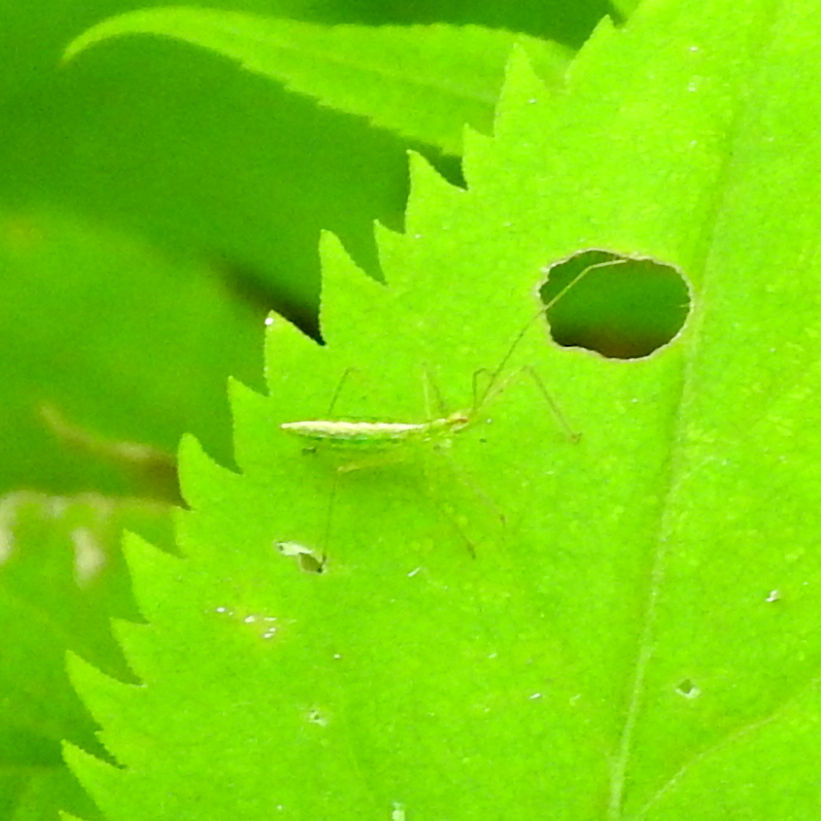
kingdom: Animalia
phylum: Arthropoda
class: Insecta
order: Hemiptera
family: Reduviidae
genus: Zelus
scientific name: Zelus luridus
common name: Pale green assassin bug
